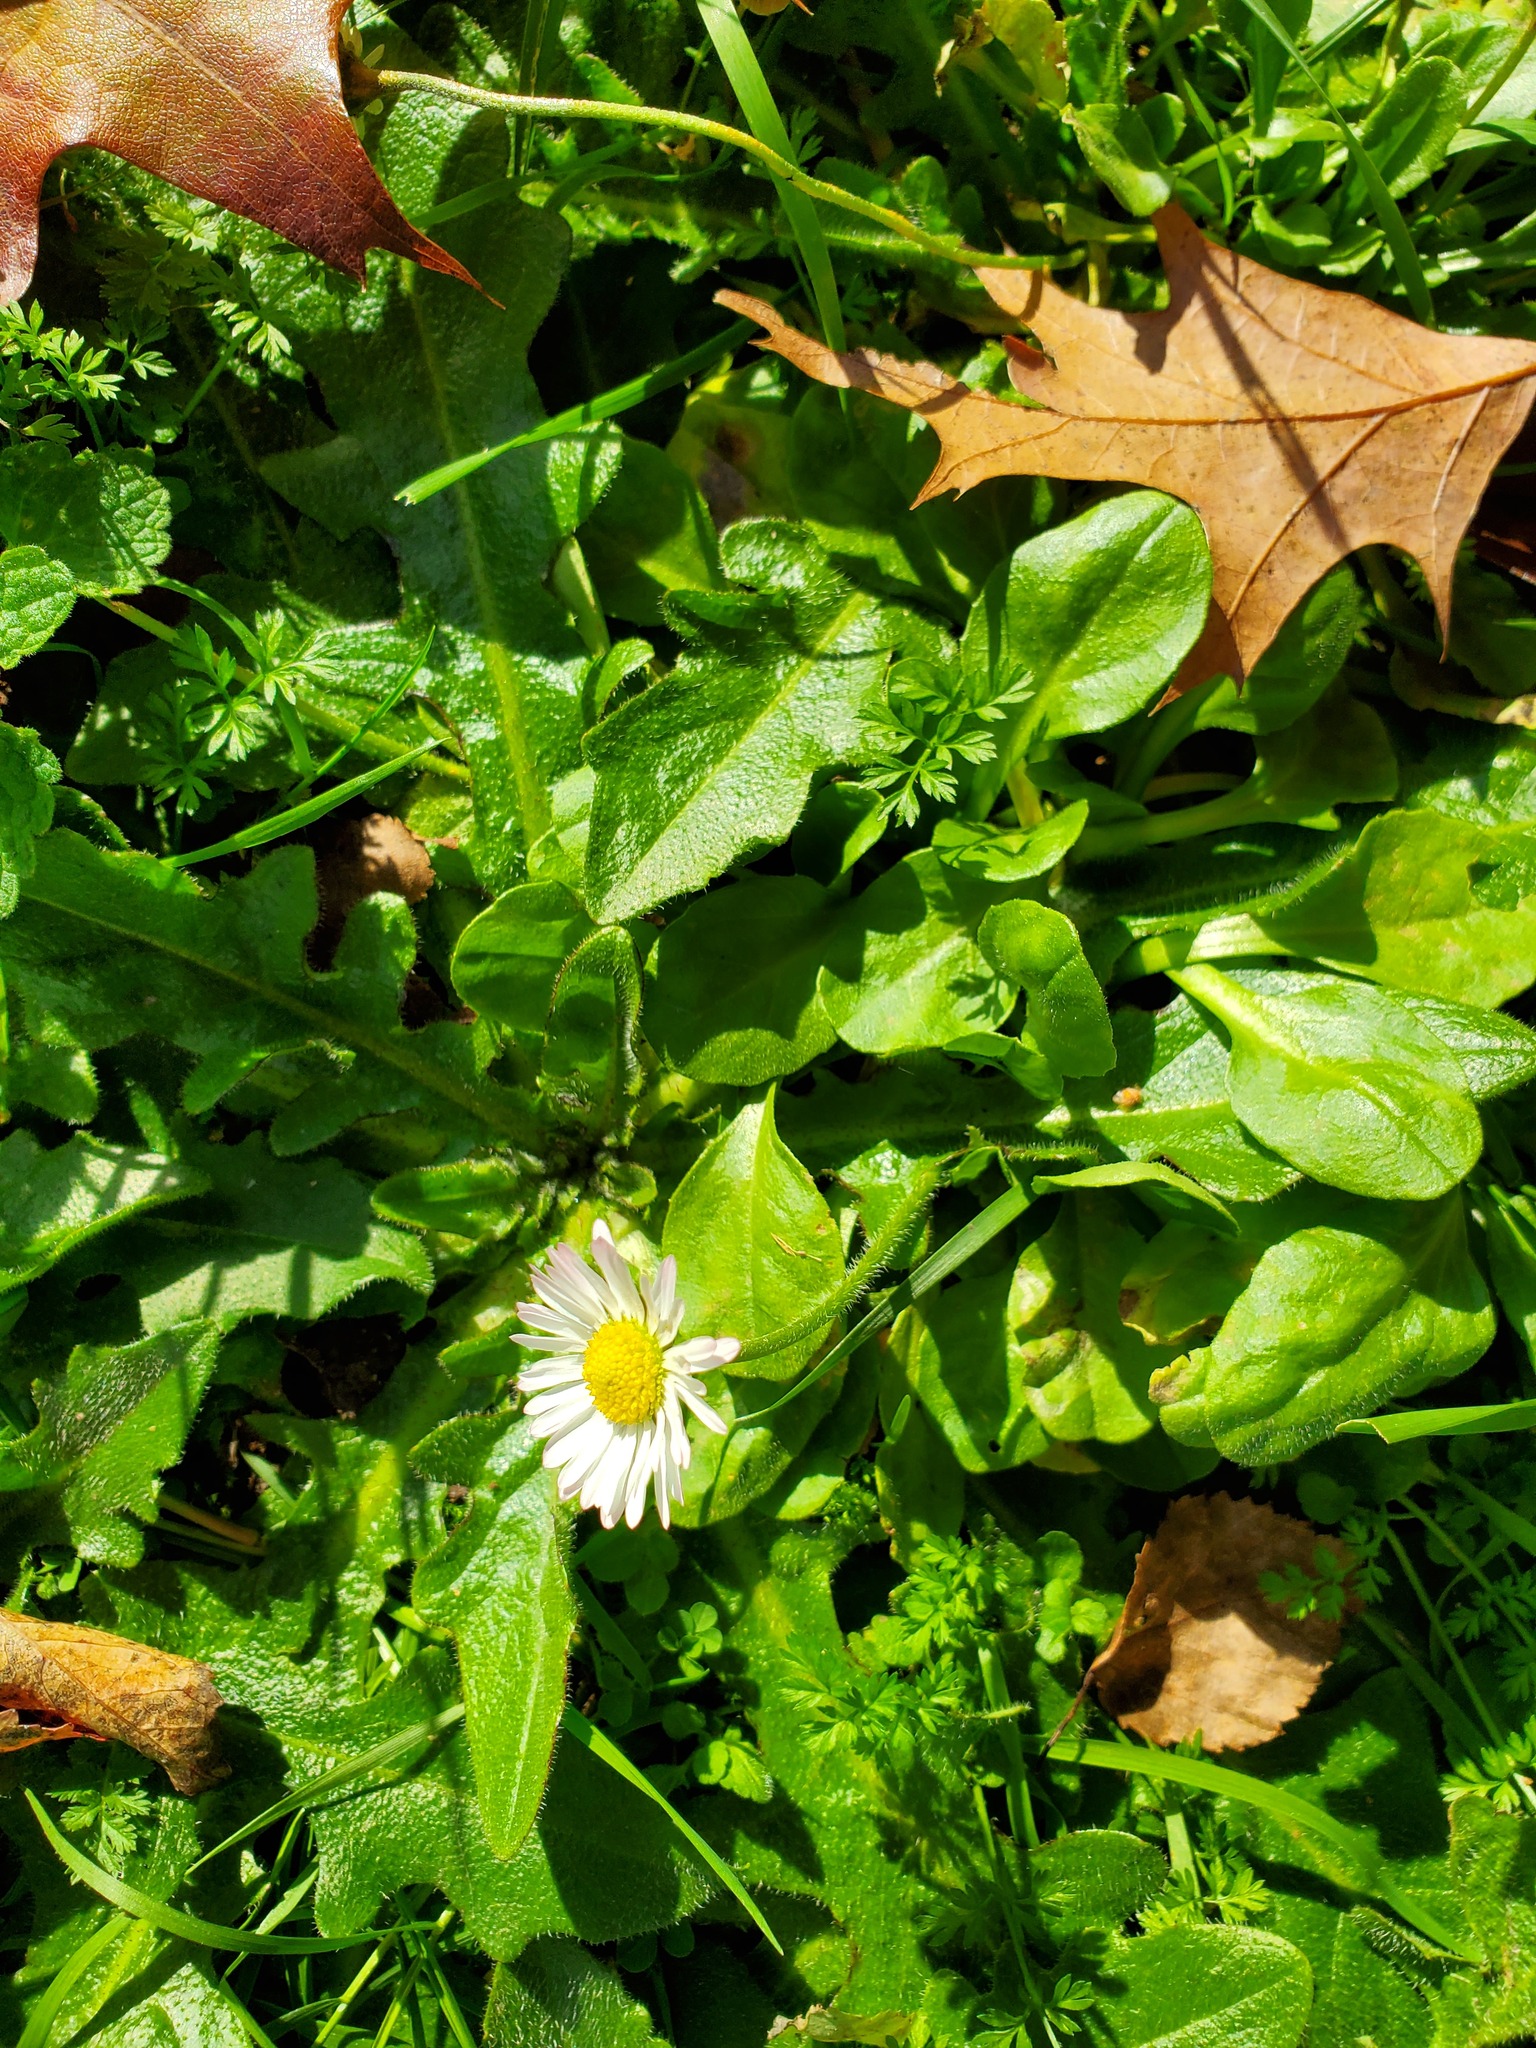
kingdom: Plantae
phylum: Tracheophyta
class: Magnoliopsida
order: Asterales
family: Asteraceae
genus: Bellis
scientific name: Bellis perennis
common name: Lawndaisy
